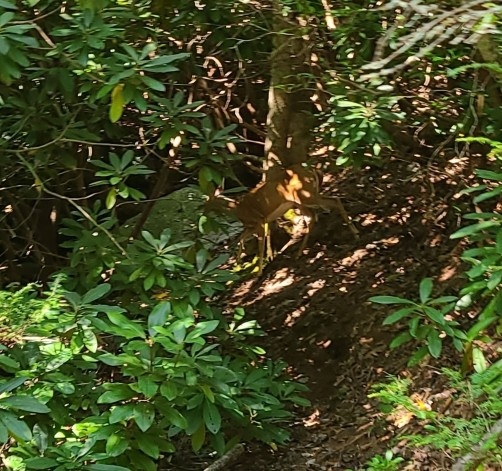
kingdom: Animalia
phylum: Chordata
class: Mammalia
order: Artiodactyla
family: Cervidae
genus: Odocoileus
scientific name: Odocoileus virginianus
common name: White-tailed deer
